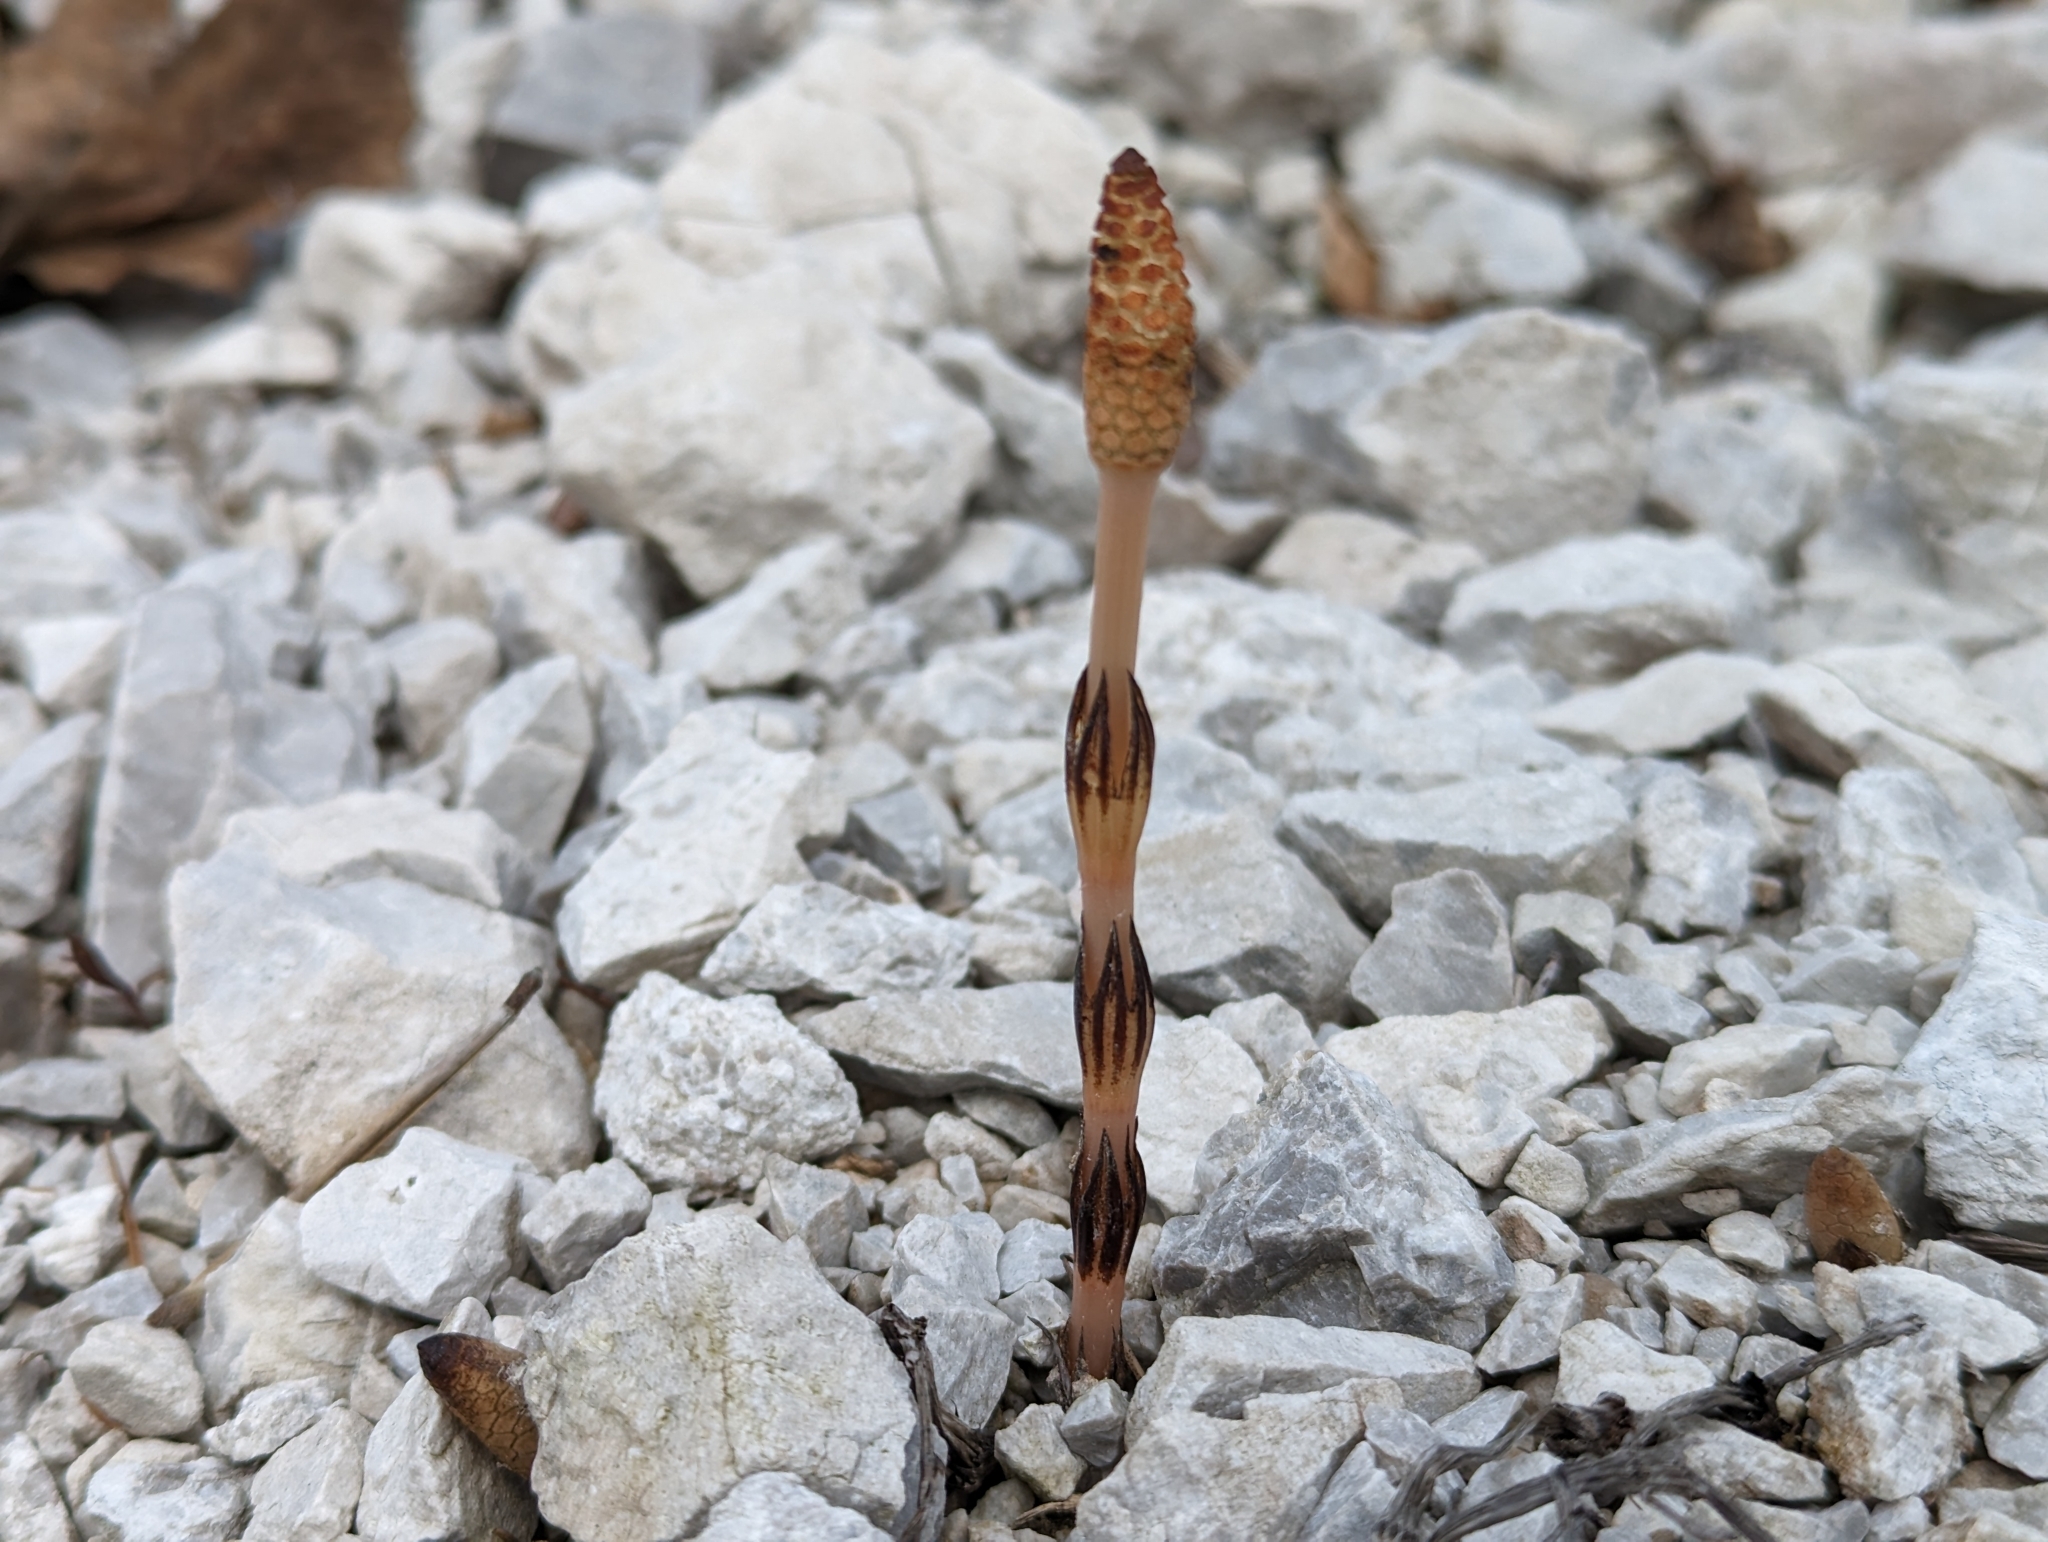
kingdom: Plantae
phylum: Tracheophyta
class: Polypodiopsida
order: Equisetales
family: Equisetaceae
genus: Equisetum
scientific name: Equisetum arvense
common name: Field horsetail
